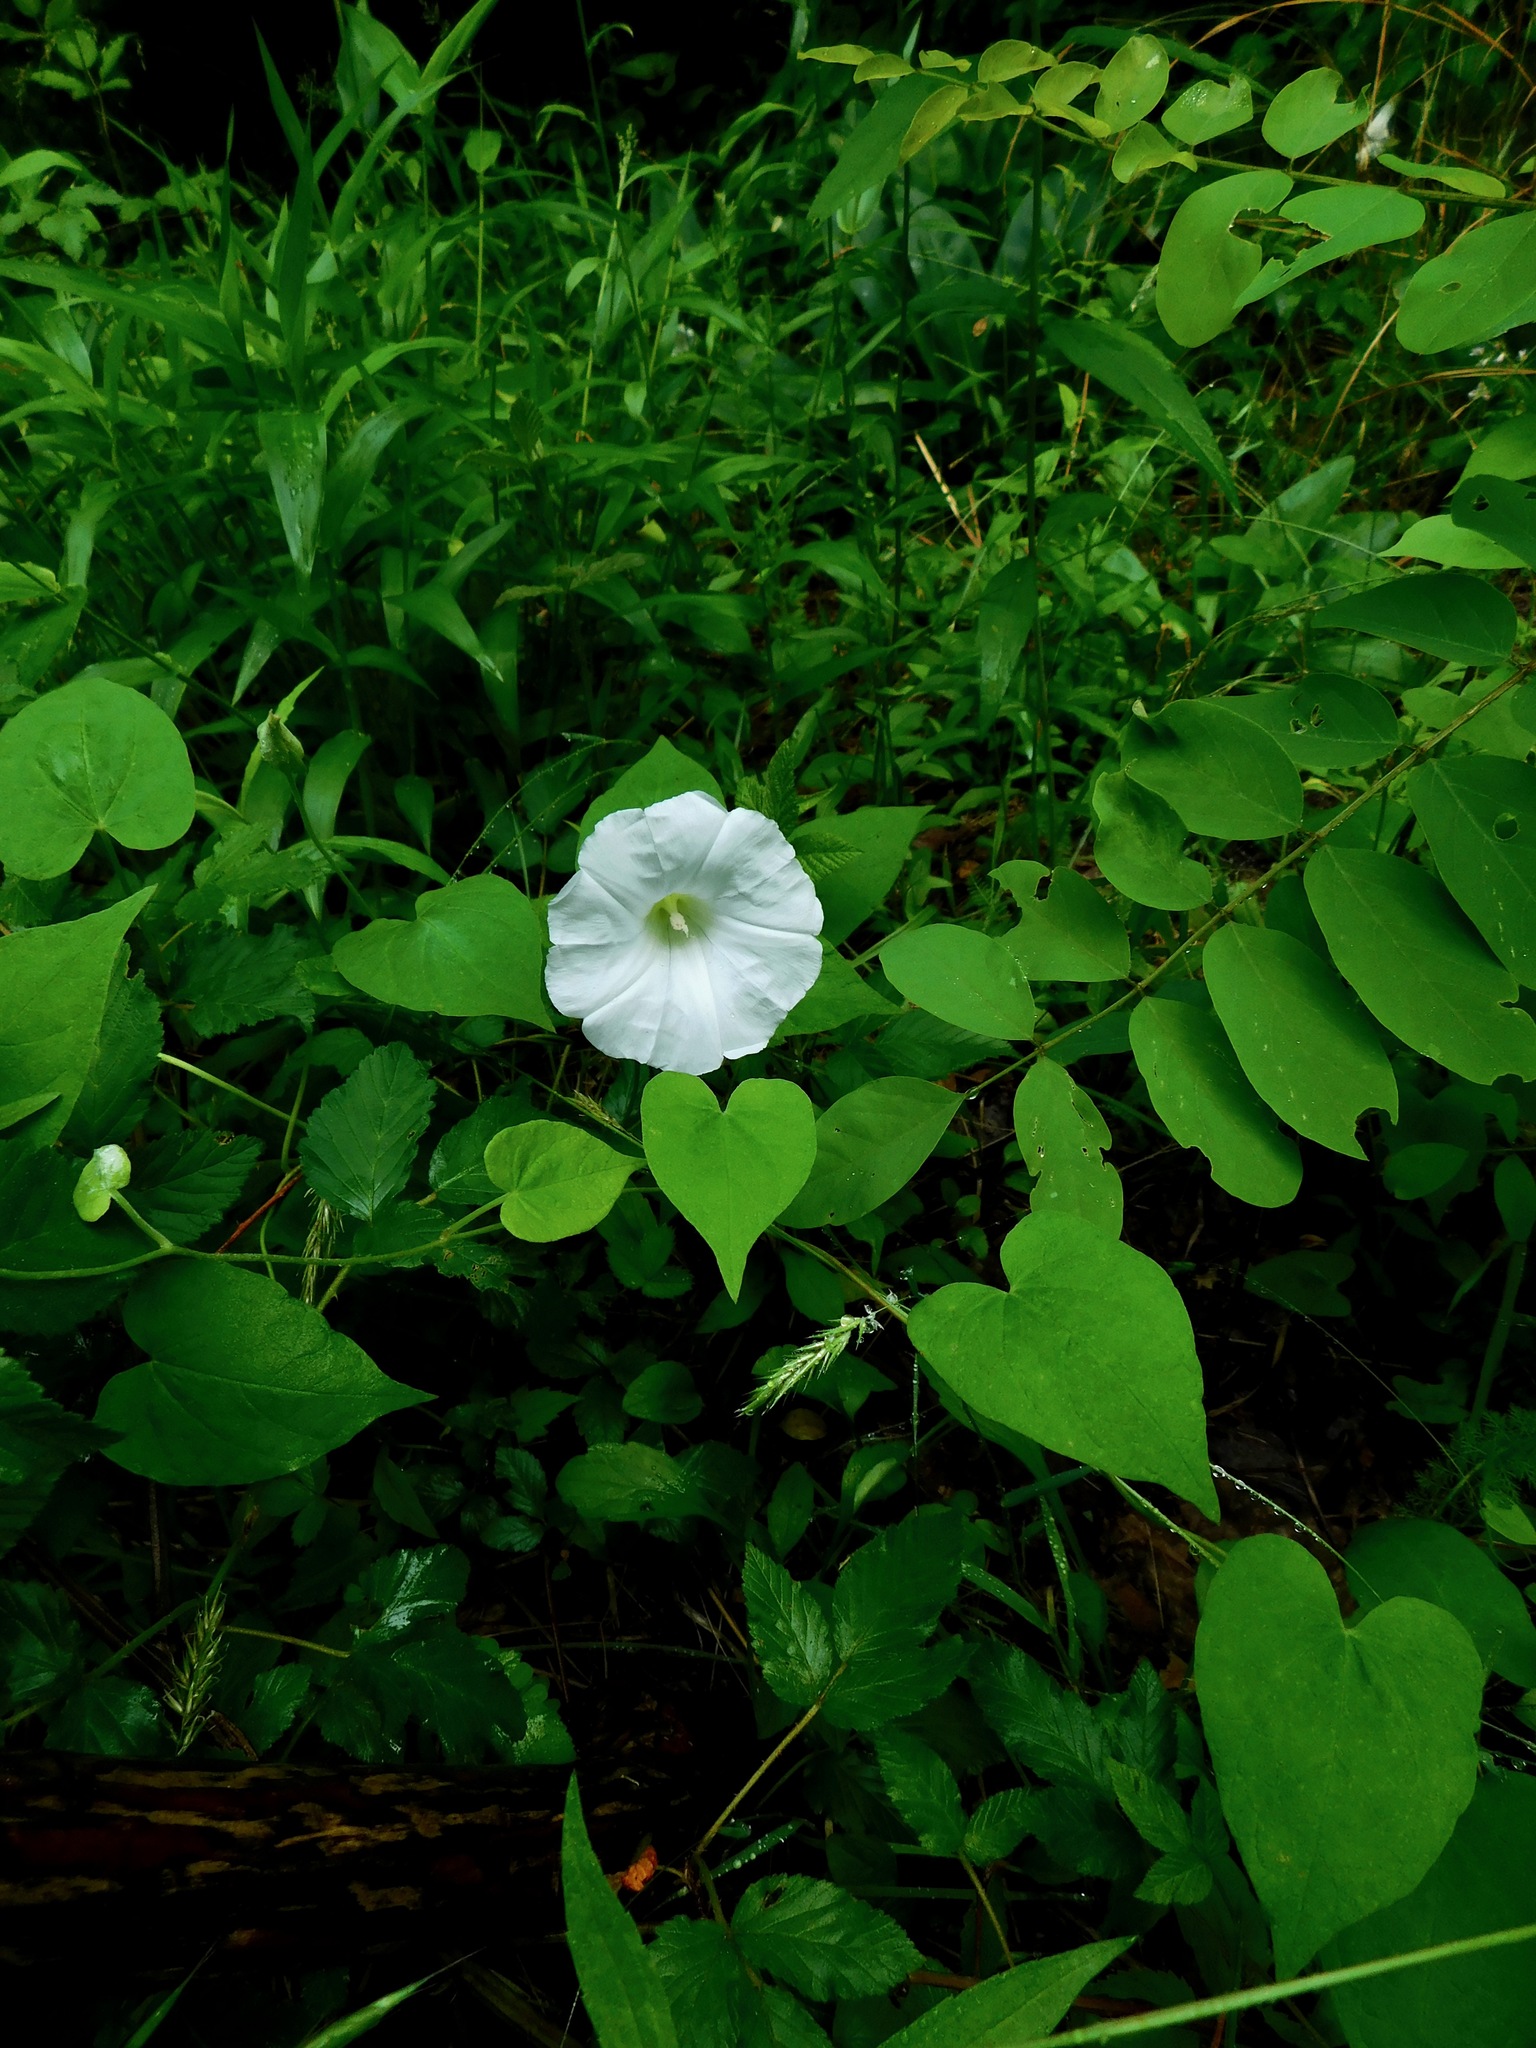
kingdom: Plantae
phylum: Tracheophyta
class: Magnoliopsida
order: Solanales
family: Convolvulaceae
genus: Calystegia
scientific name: Calystegia catesbeiana
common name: Catesby's false bindweed
